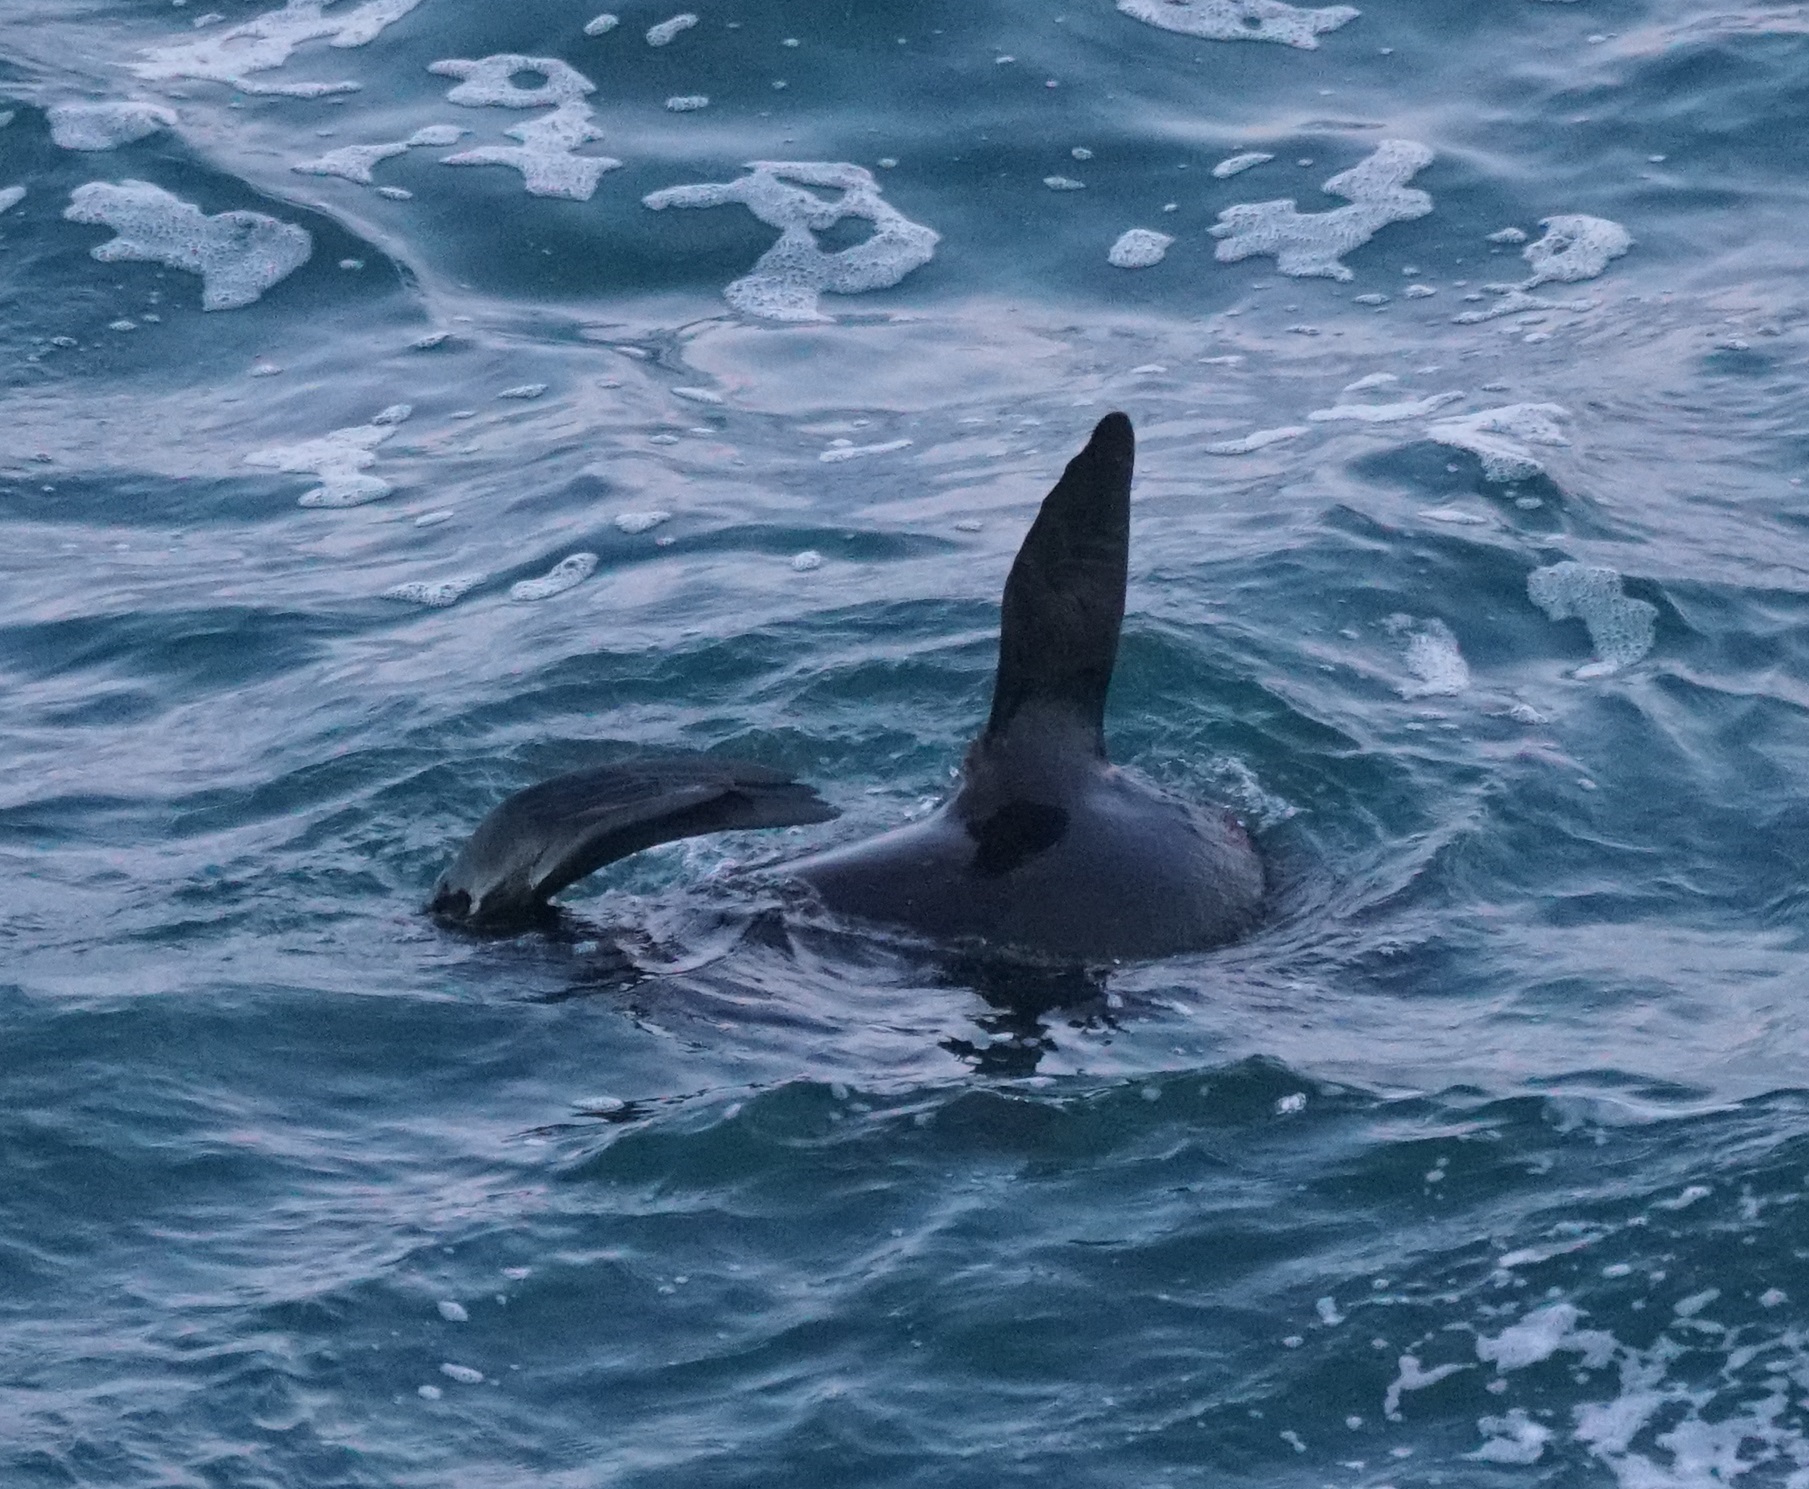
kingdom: Animalia
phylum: Chordata
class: Mammalia
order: Carnivora
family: Otariidae
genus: Arctocephalus
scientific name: Arctocephalus pusillus
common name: Brown fur seal
